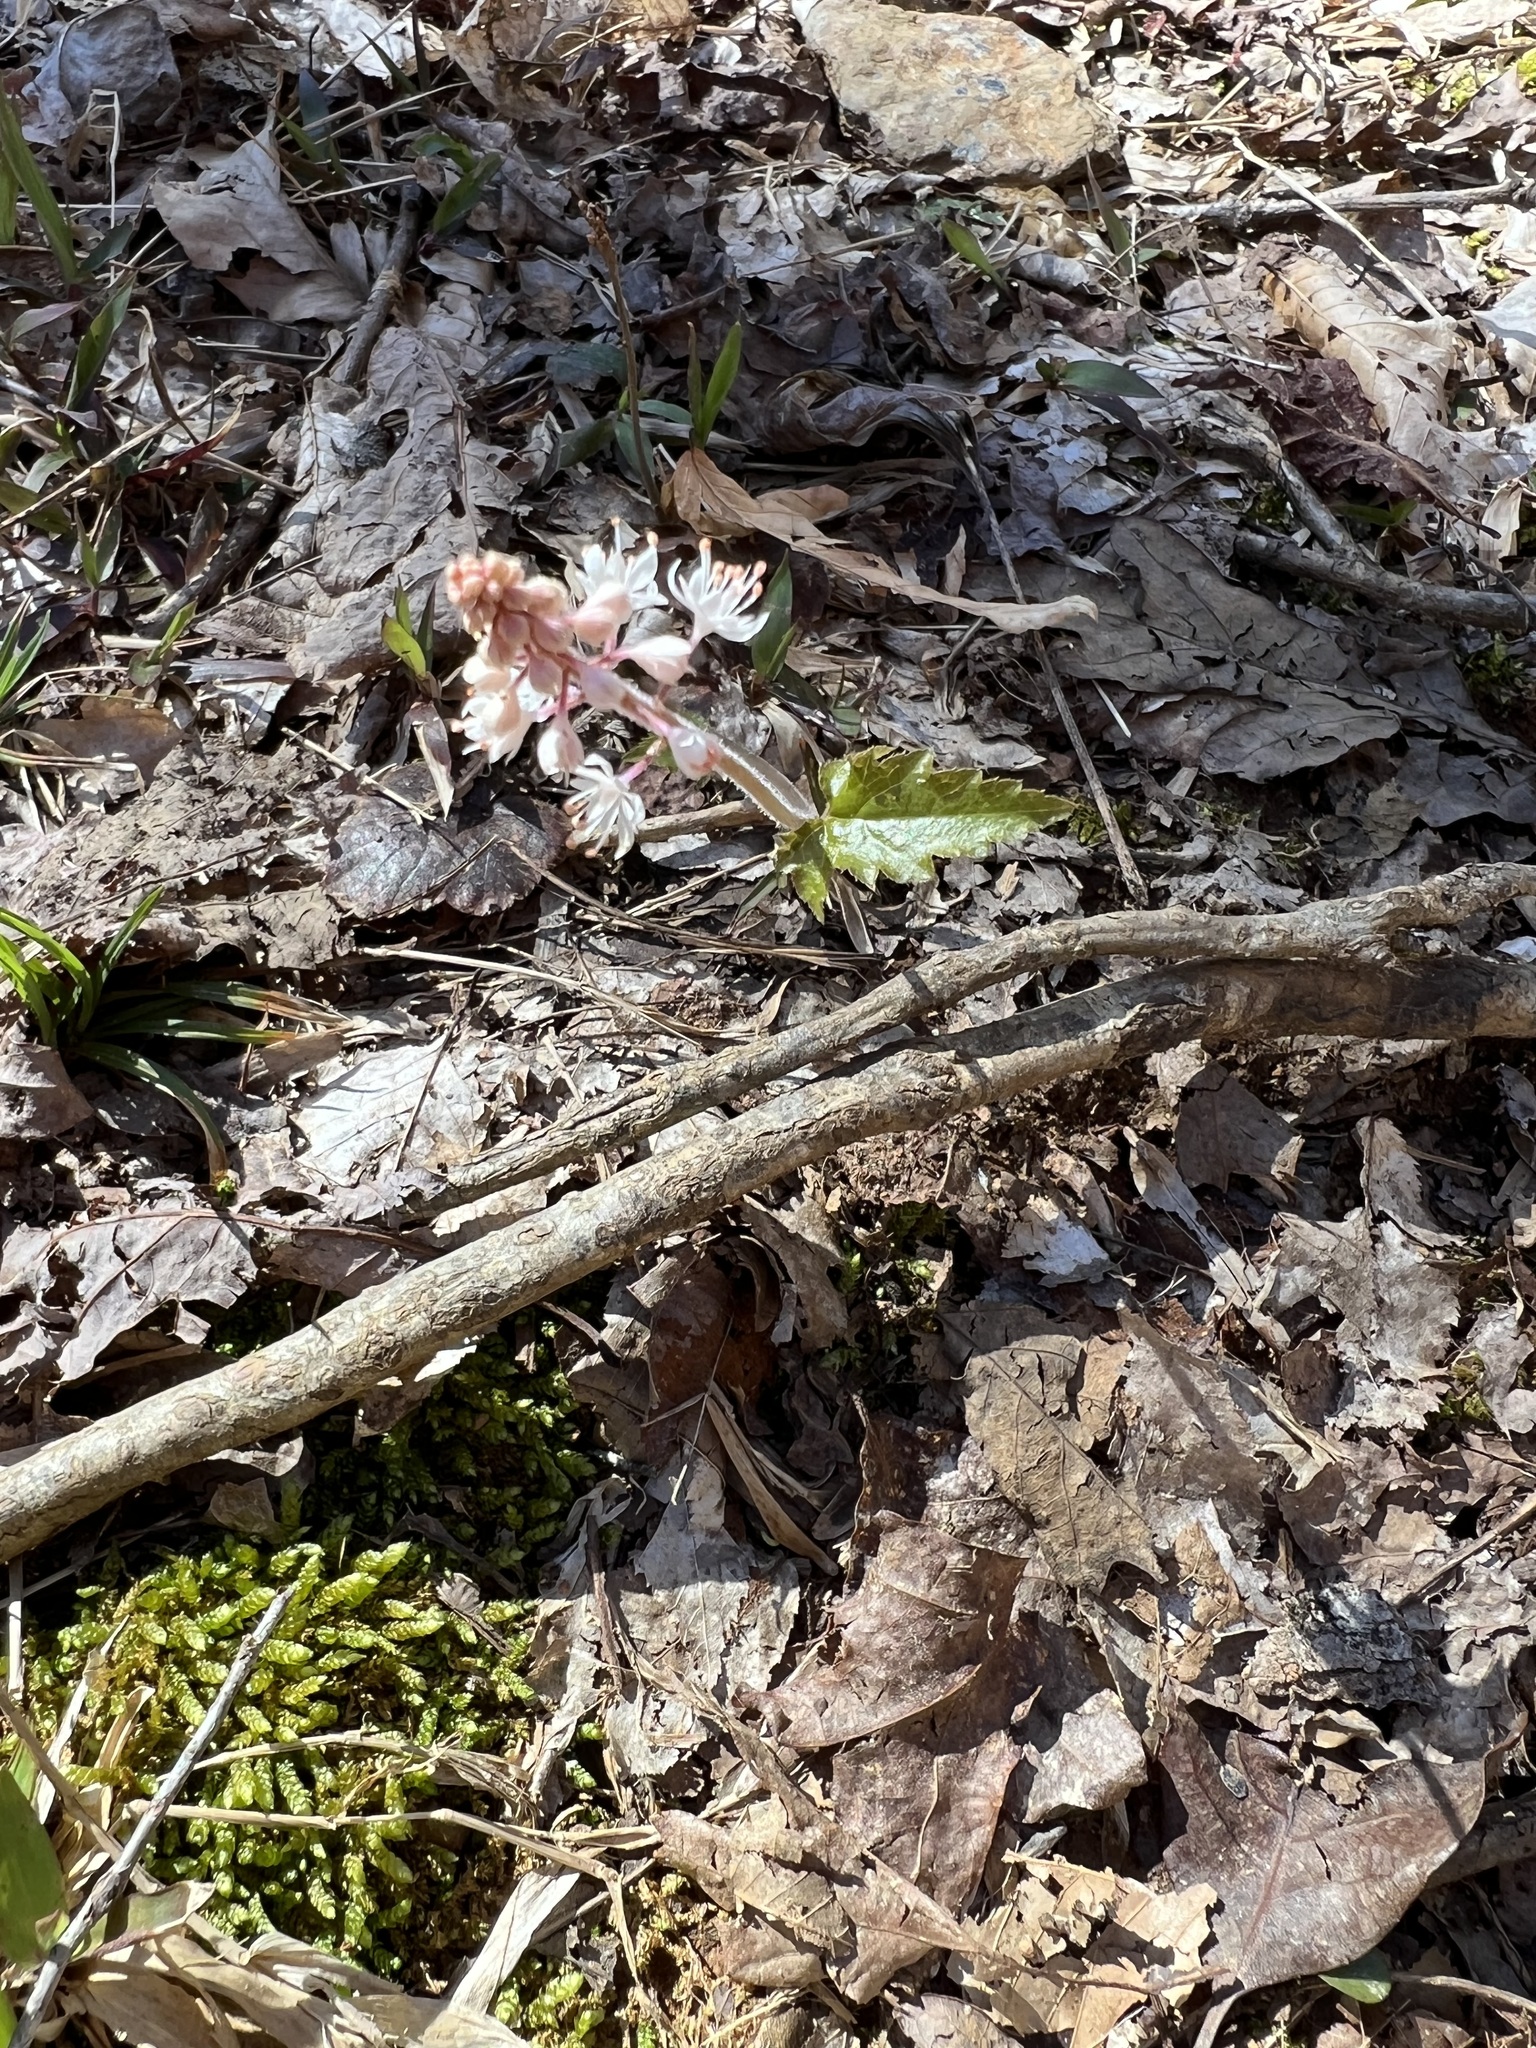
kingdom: Plantae
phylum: Tracheophyta
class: Magnoliopsida
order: Saxifragales
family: Saxifragaceae
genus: Tiarella
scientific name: Tiarella austrina
